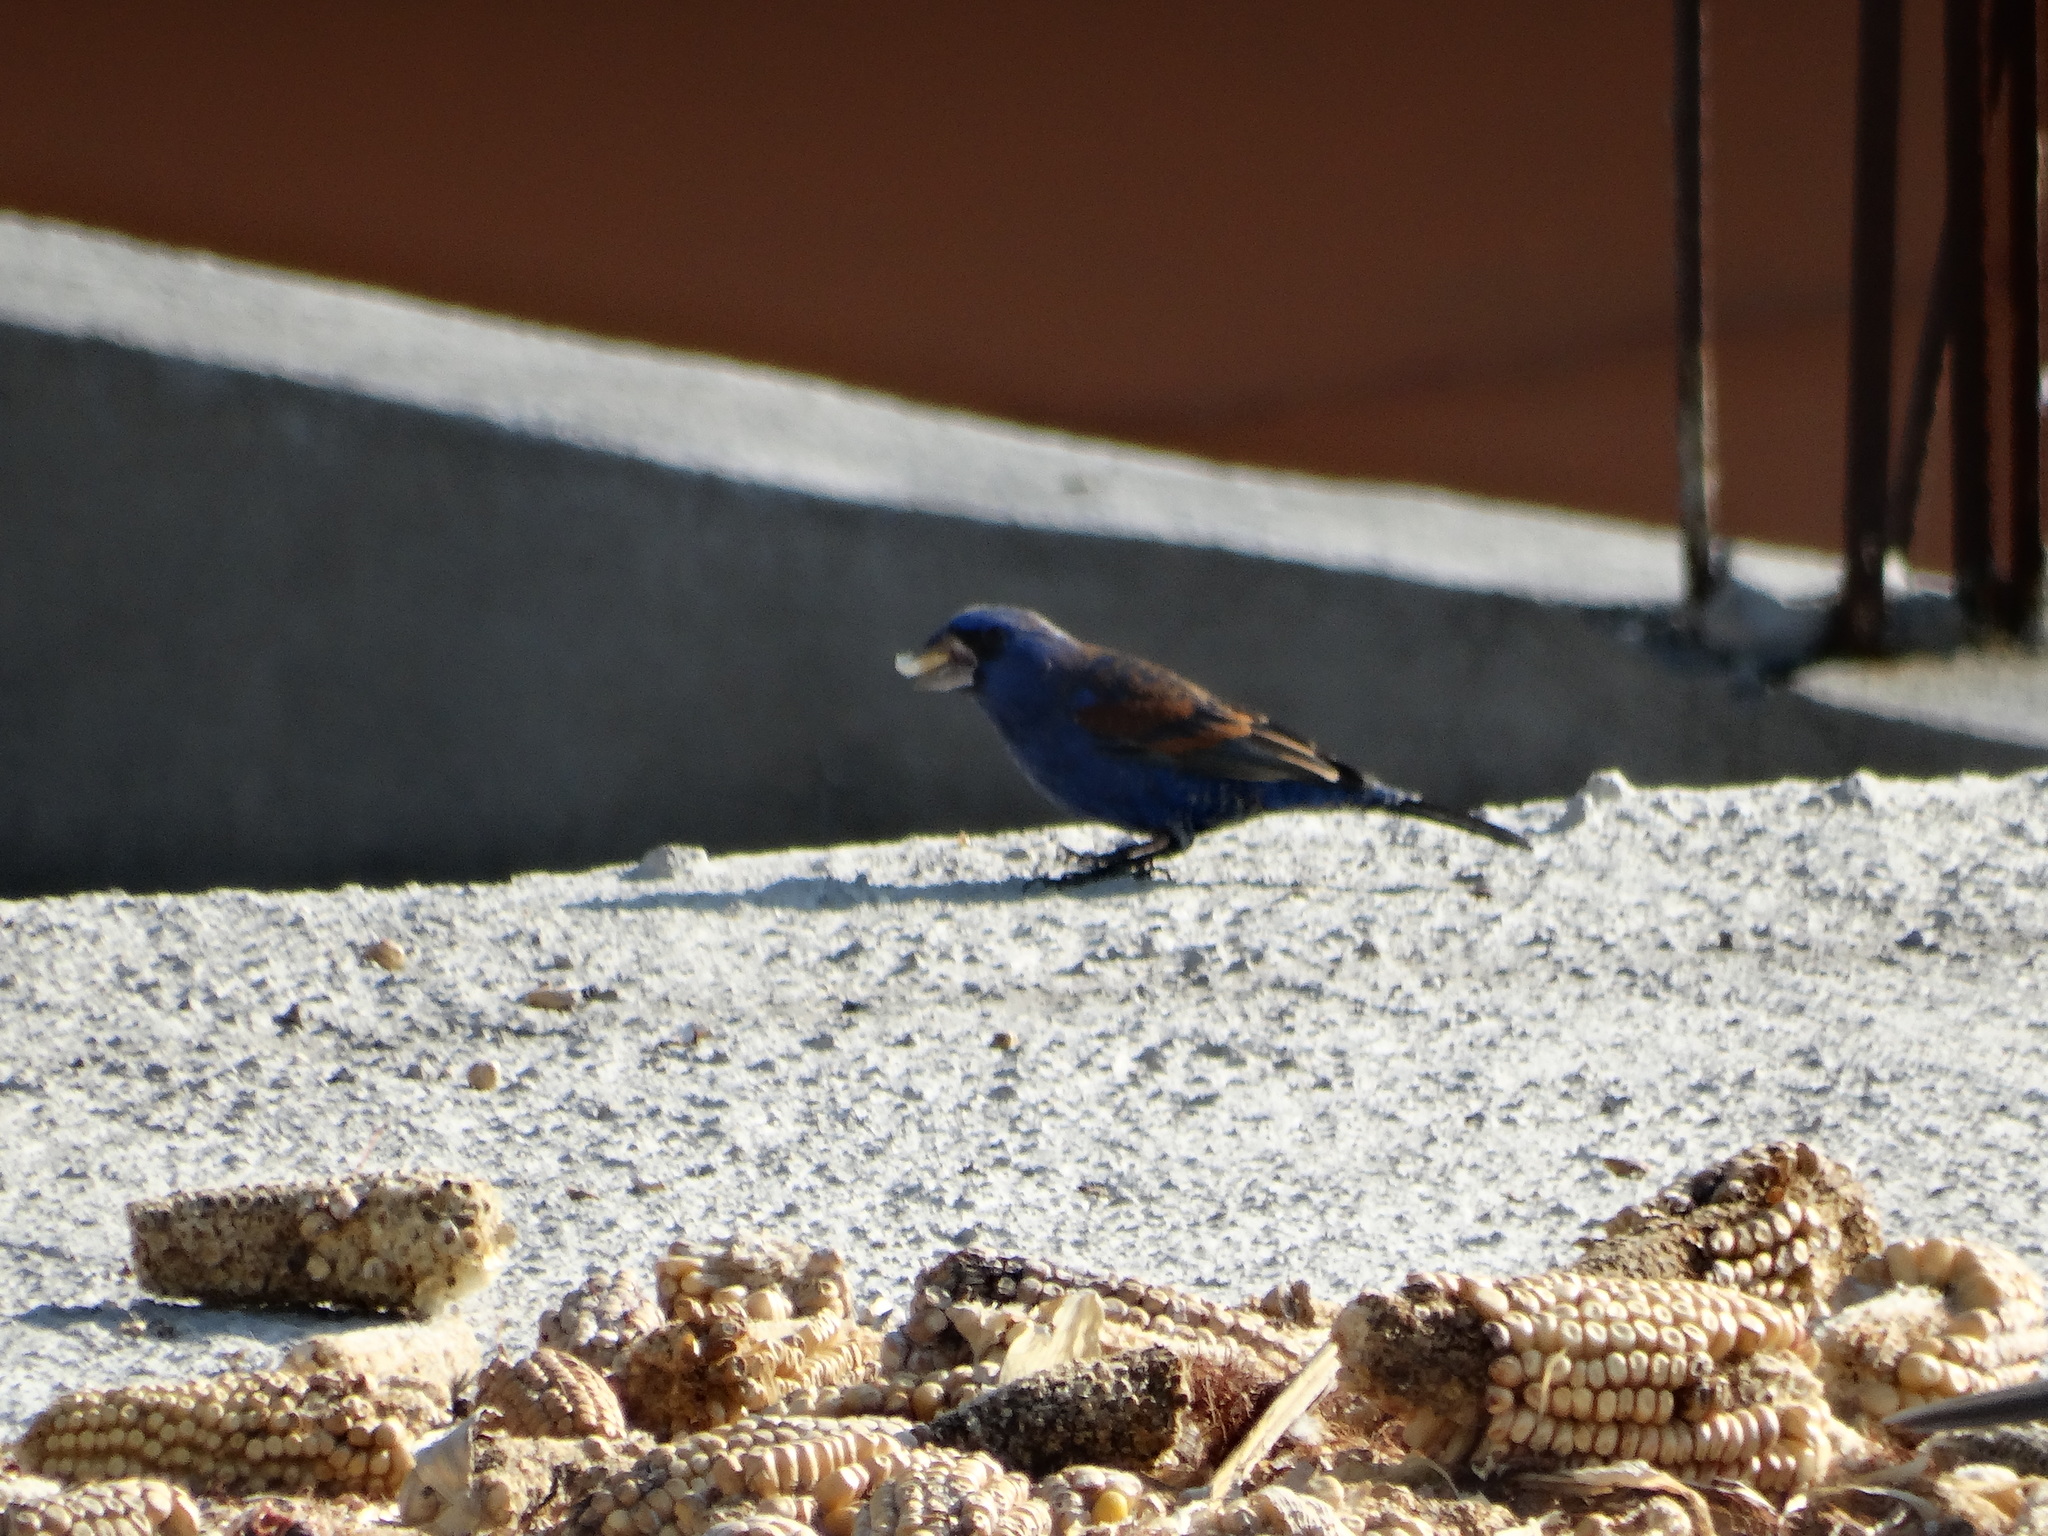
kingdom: Animalia
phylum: Chordata
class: Aves
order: Passeriformes
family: Cardinalidae
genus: Passerina
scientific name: Passerina caerulea
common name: Blue grosbeak
